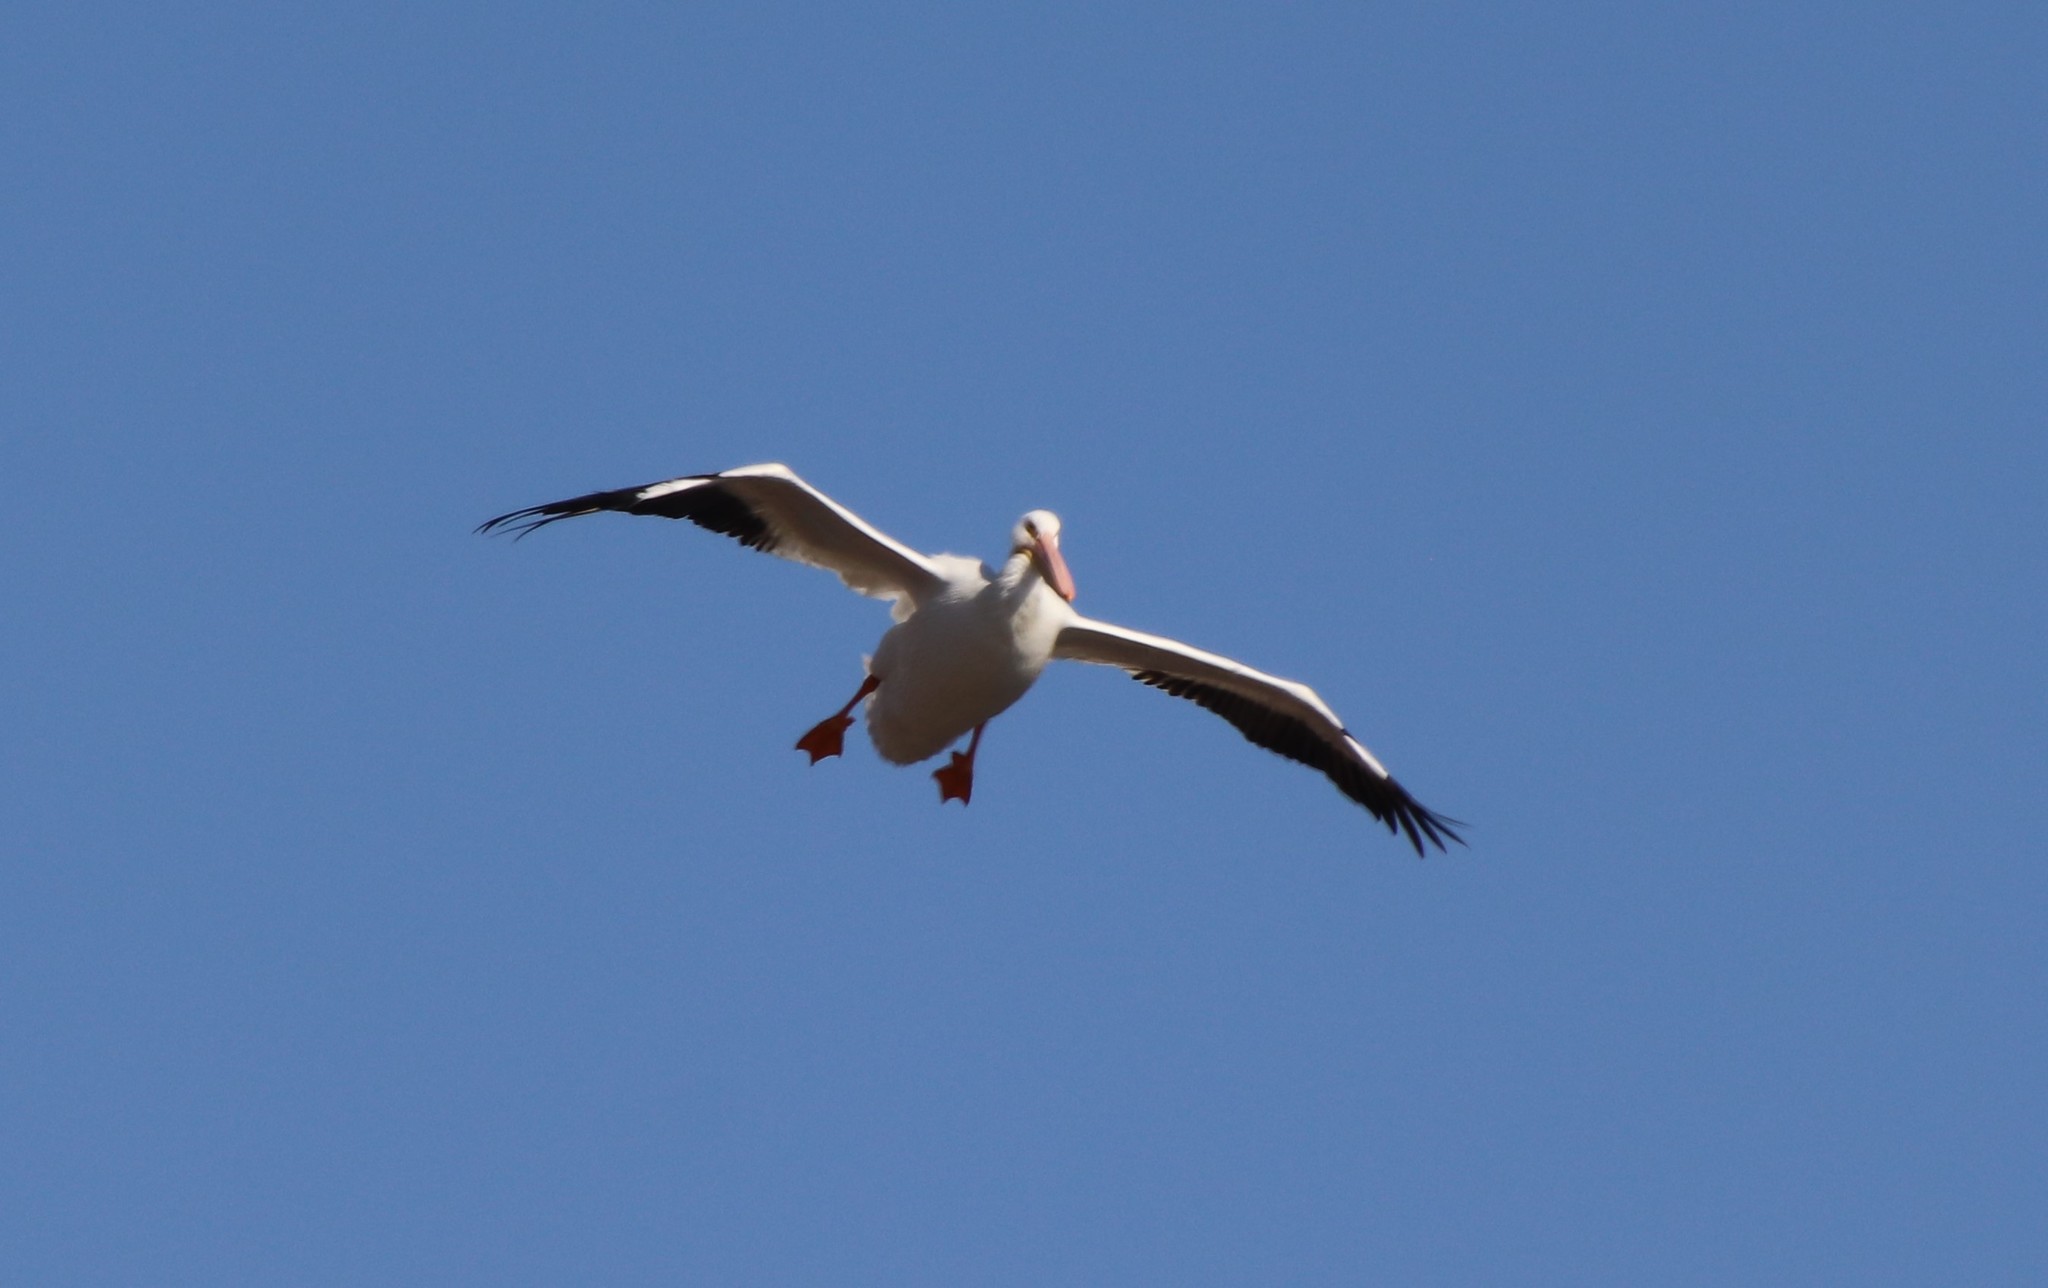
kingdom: Animalia
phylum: Chordata
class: Aves
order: Pelecaniformes
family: Pelecanidae
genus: Pelecanus
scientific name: Pelecanus erythrorhynchos
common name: American white pelican
